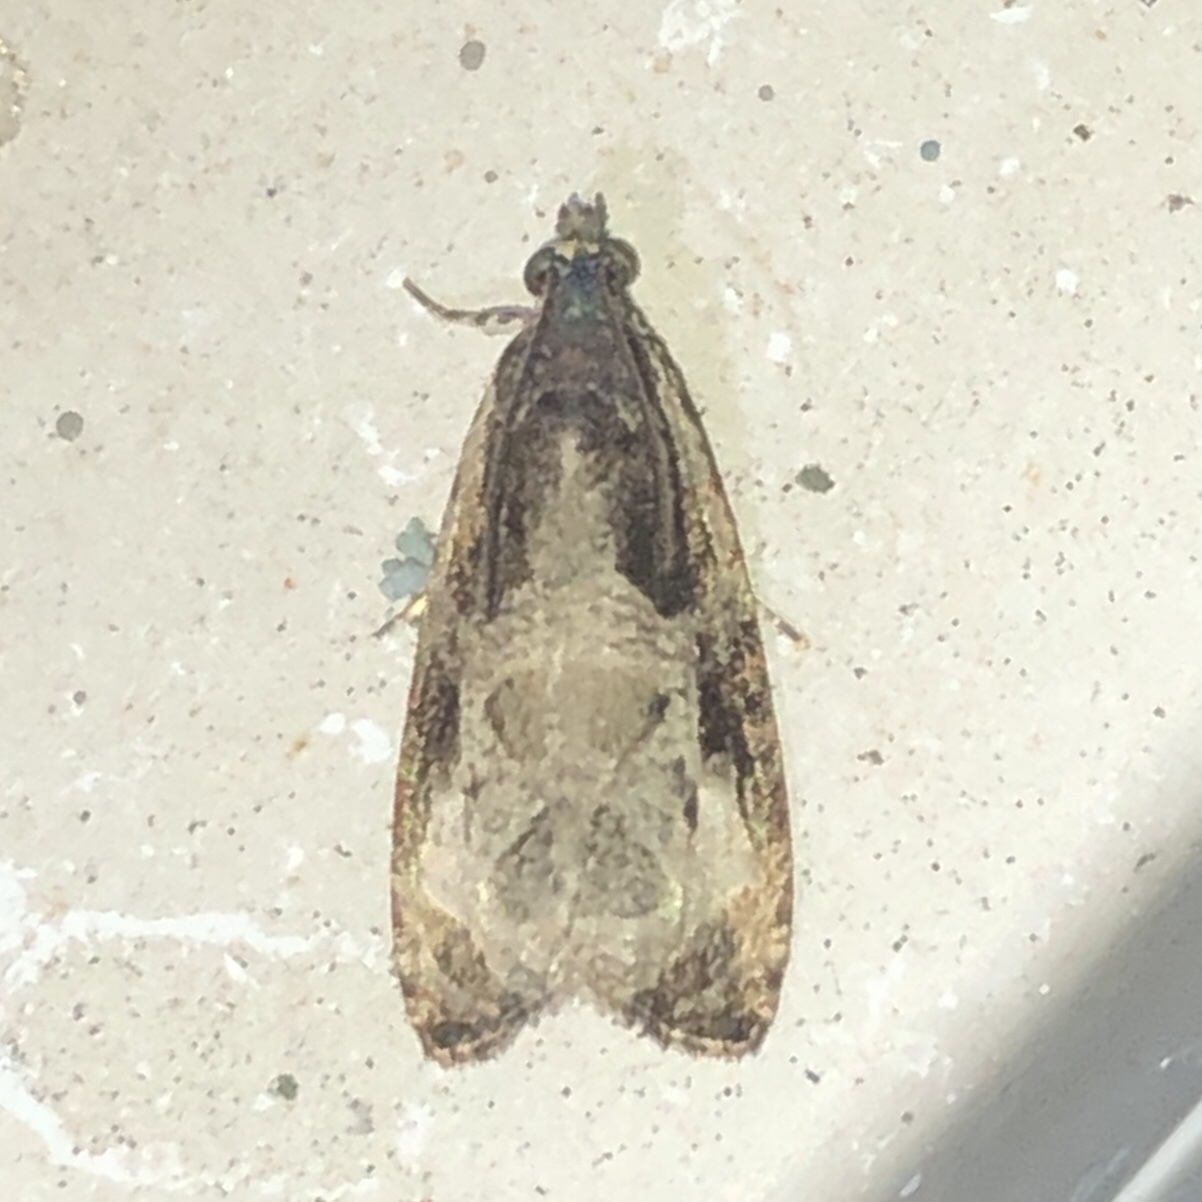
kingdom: Animalia
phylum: Arthropoda
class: Insecta
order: Lepidoptera
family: Tortricidae
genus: Olethreutes
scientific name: Olethreutes connectum
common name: Bunchberry leaffolder moth
